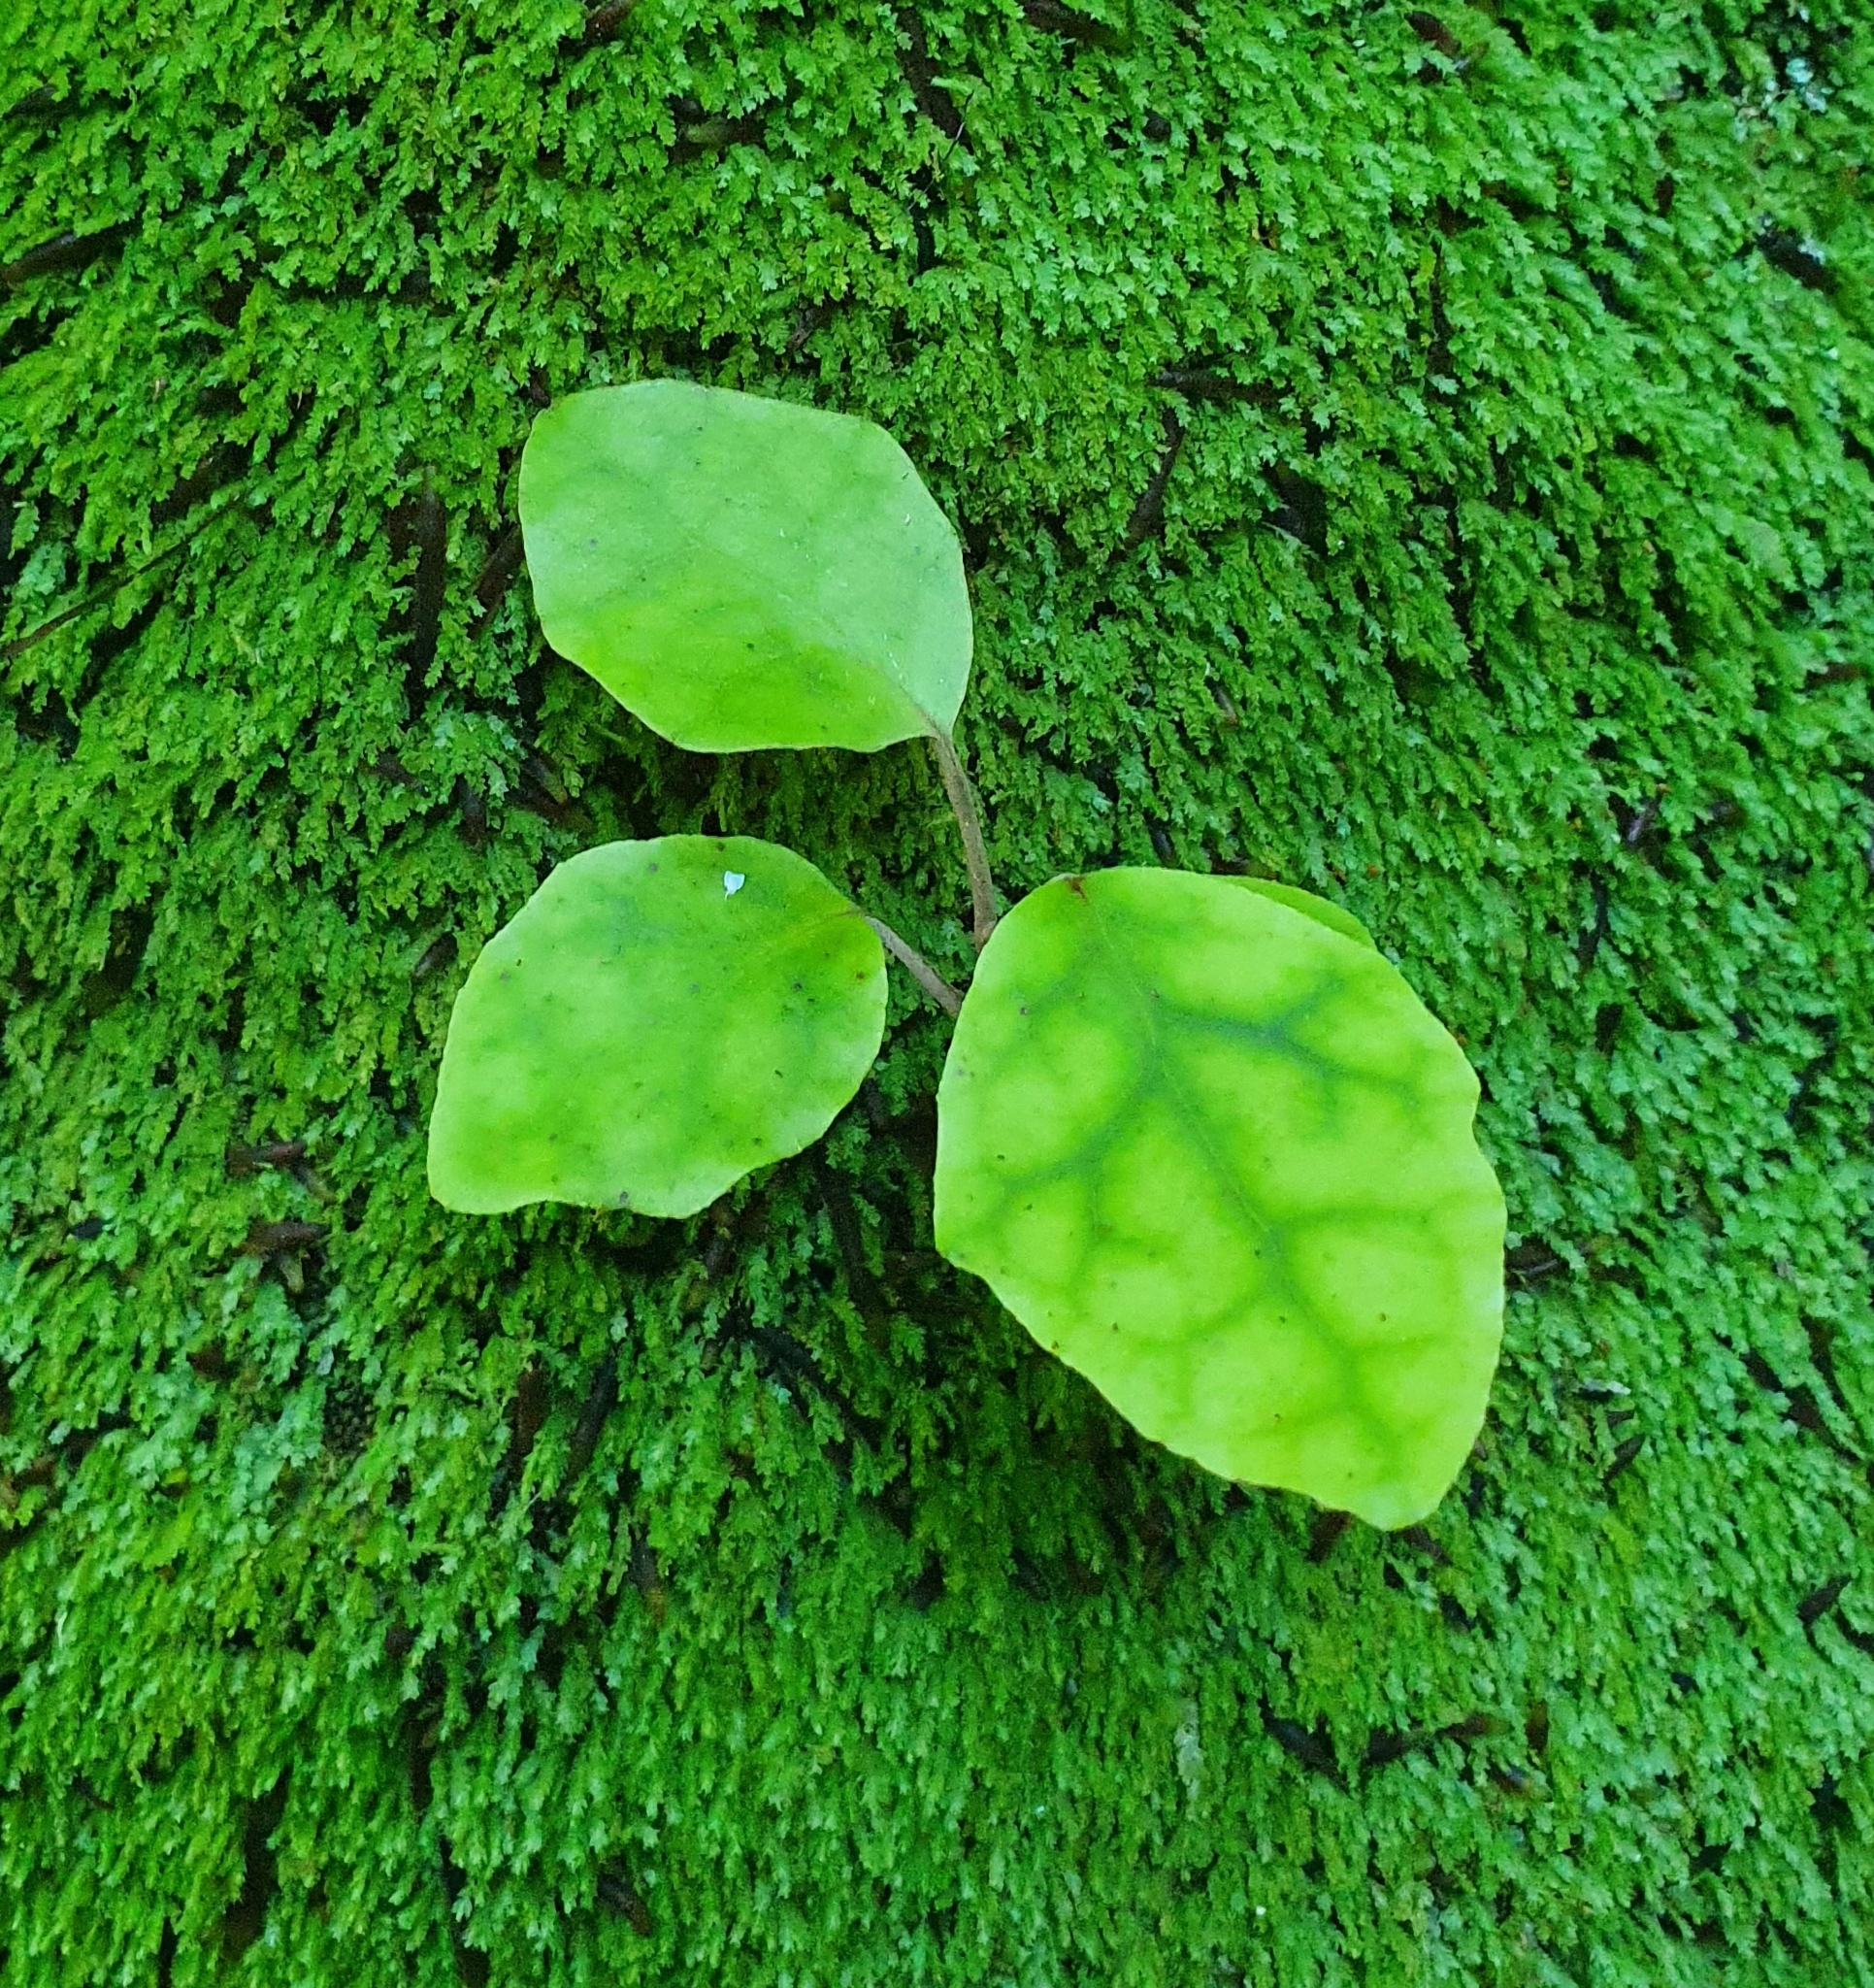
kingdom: Plantae
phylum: Tracheophyta
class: Magnoliopsida
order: Asterales
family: Asteraceae
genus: Brachyglottis
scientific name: Brachyglottis repanda
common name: Hedge ragwort
